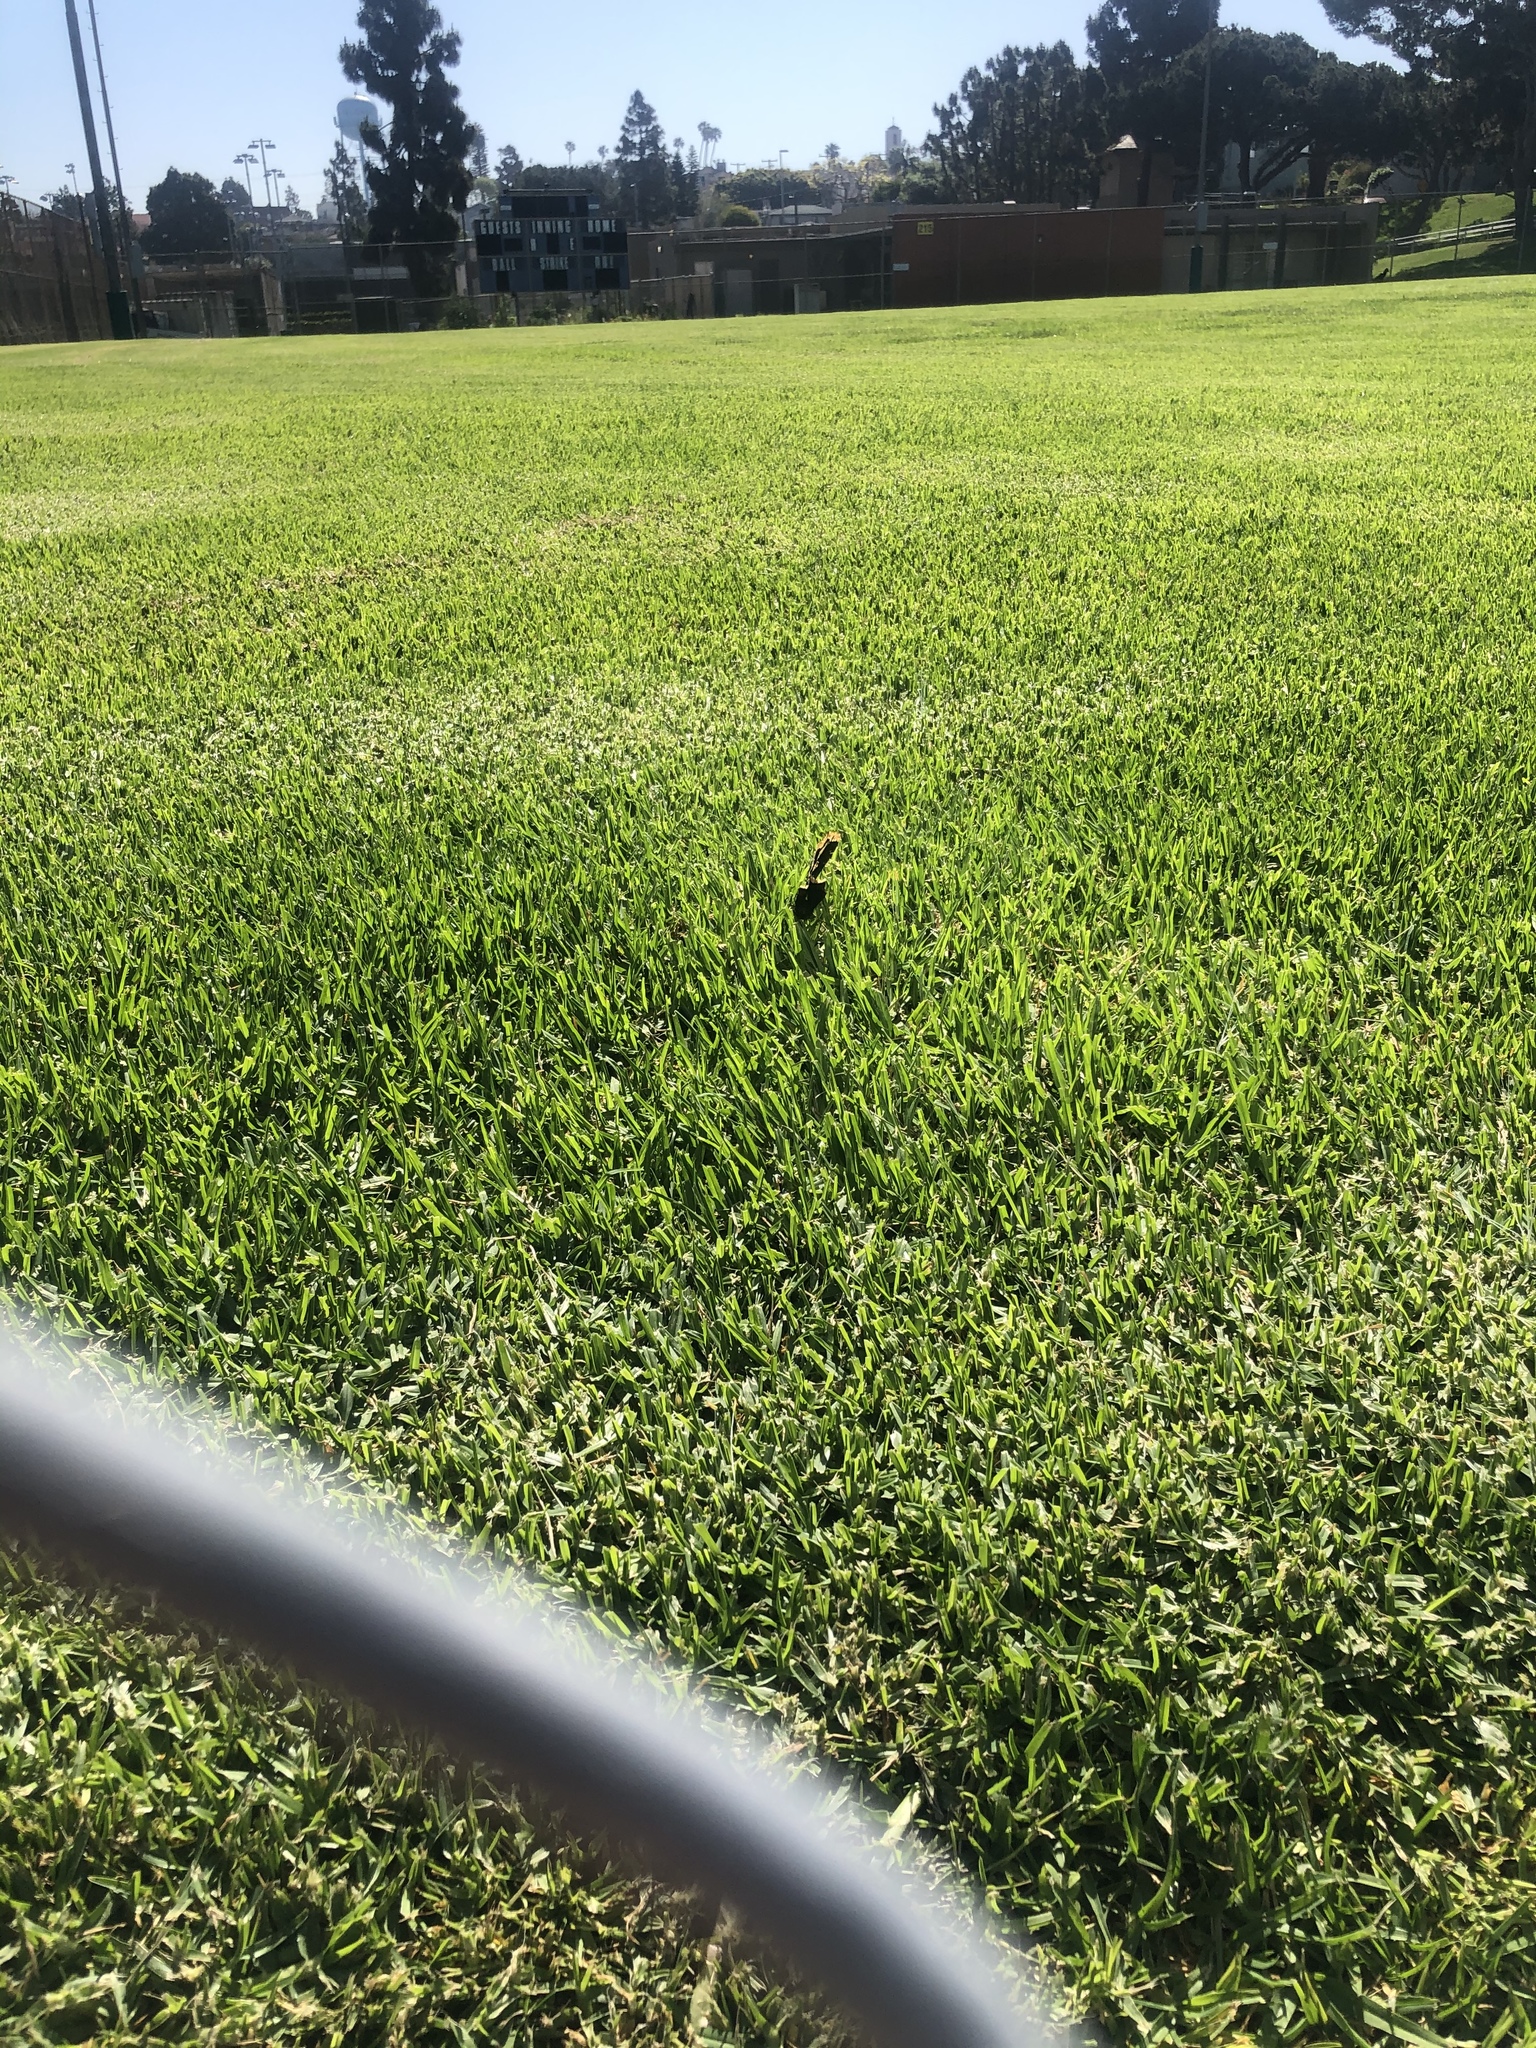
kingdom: Animalia
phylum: Arthropoda
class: Insecta
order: Lepidoptera
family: Nymphalidae
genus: Nymphalis
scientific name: Nymphalis antiopa
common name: Camberwell beauty
